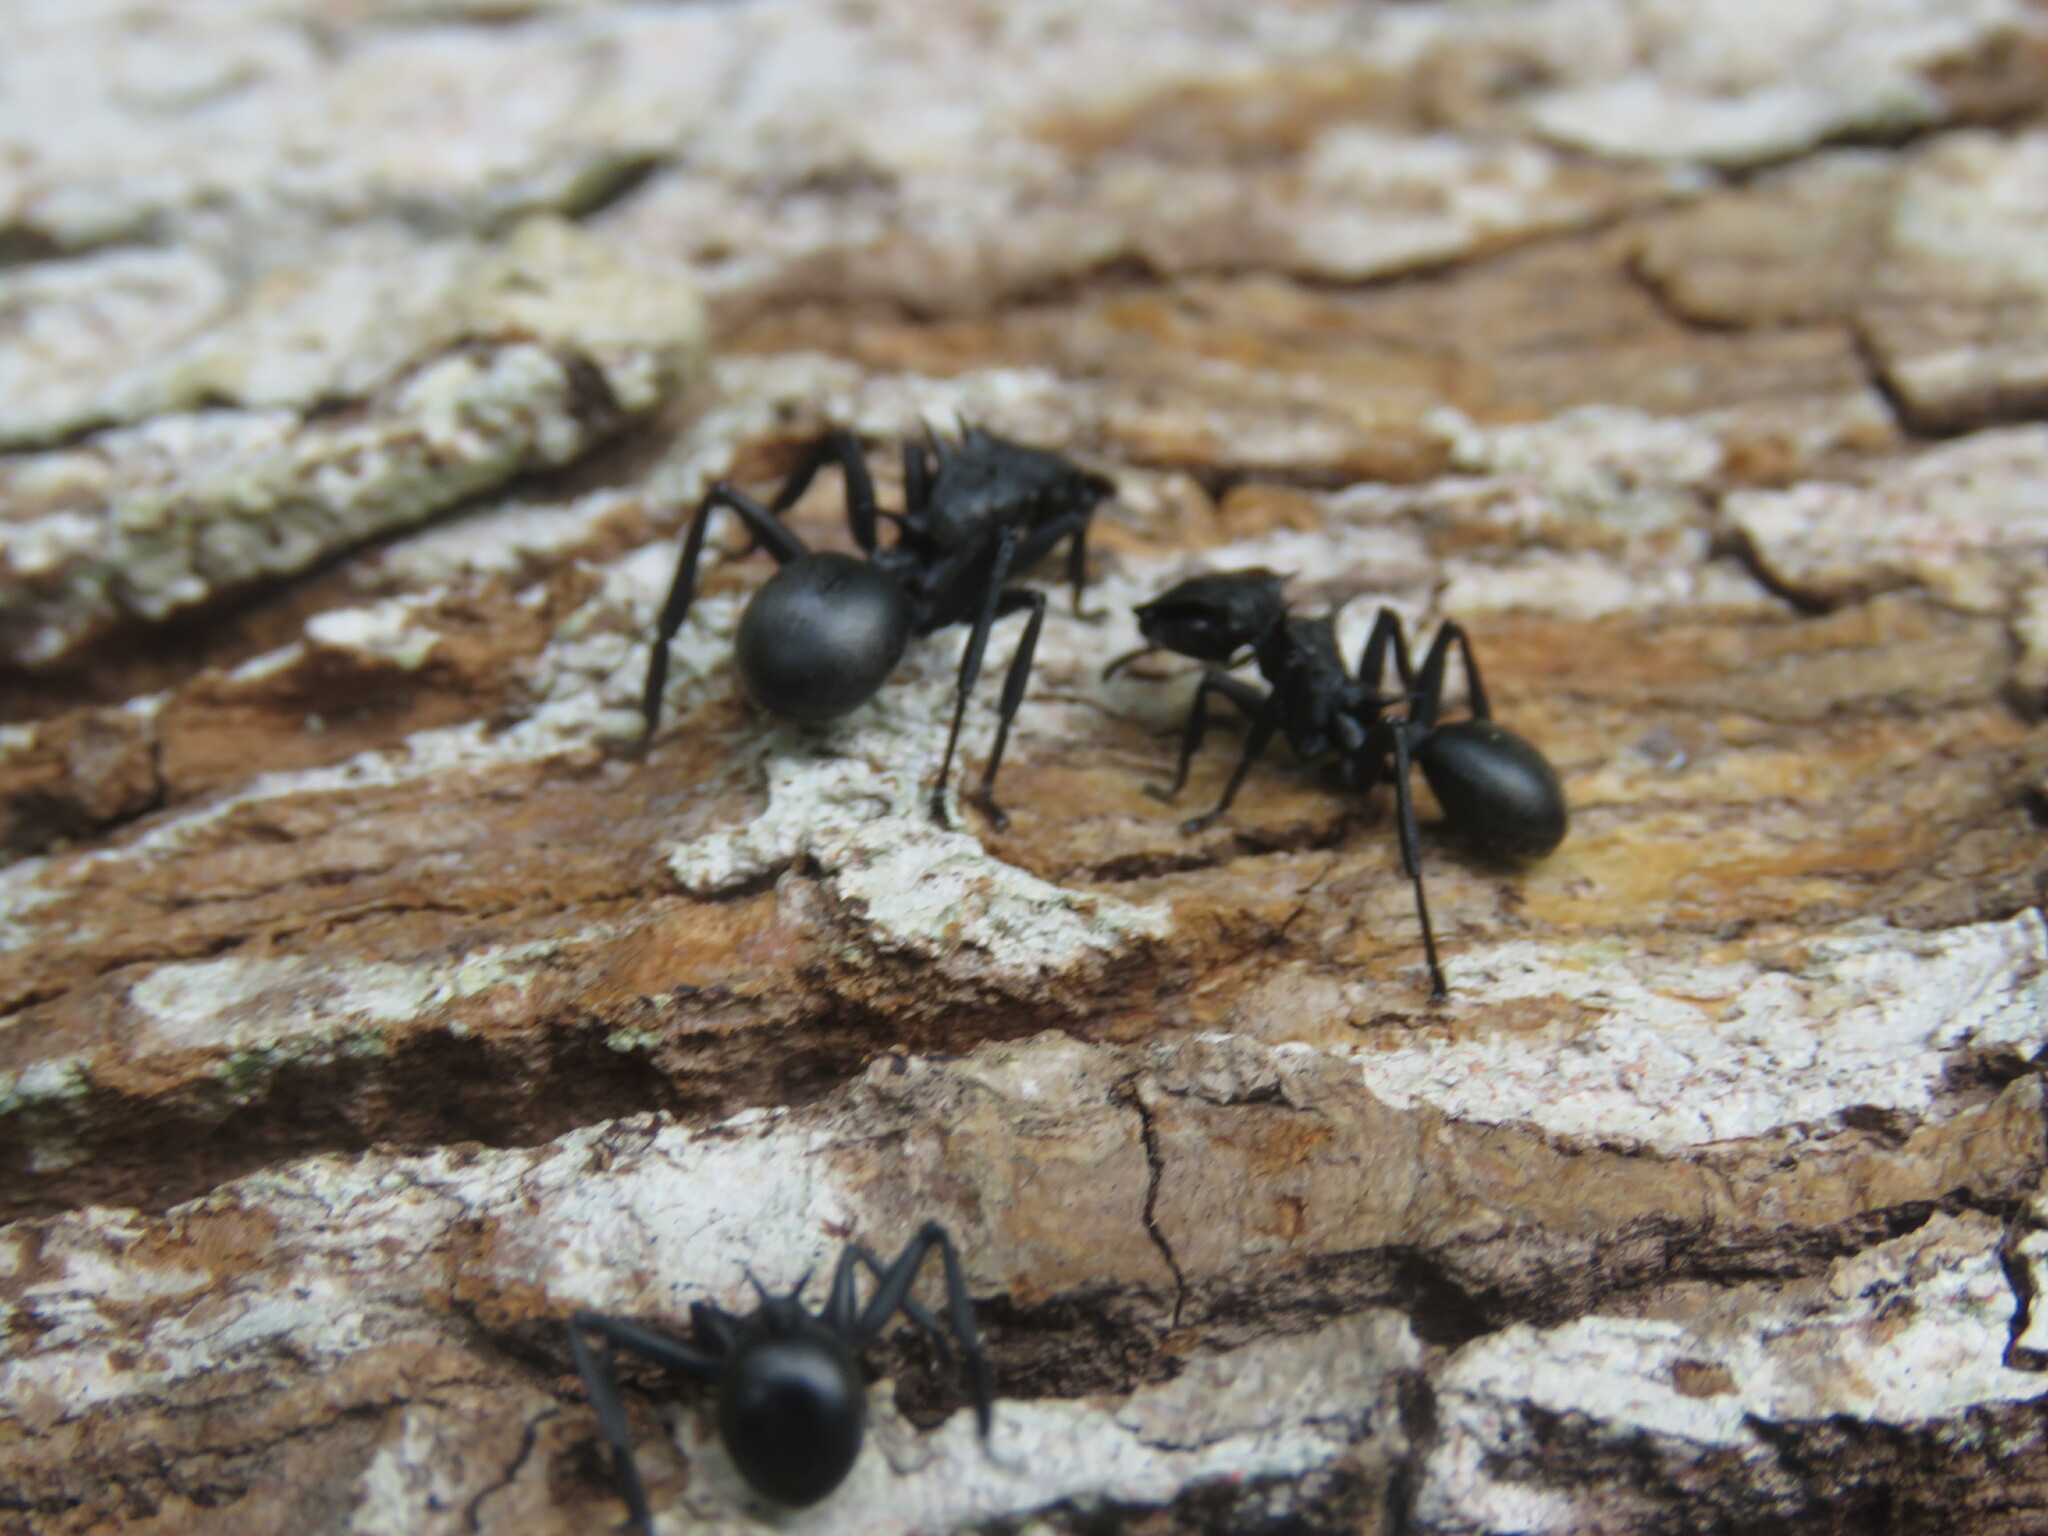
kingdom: Animalia
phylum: Arthropoda
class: Insecta
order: Hymenoptera
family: Formicidae
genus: Cephalotes
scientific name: Cephalotes atratus
